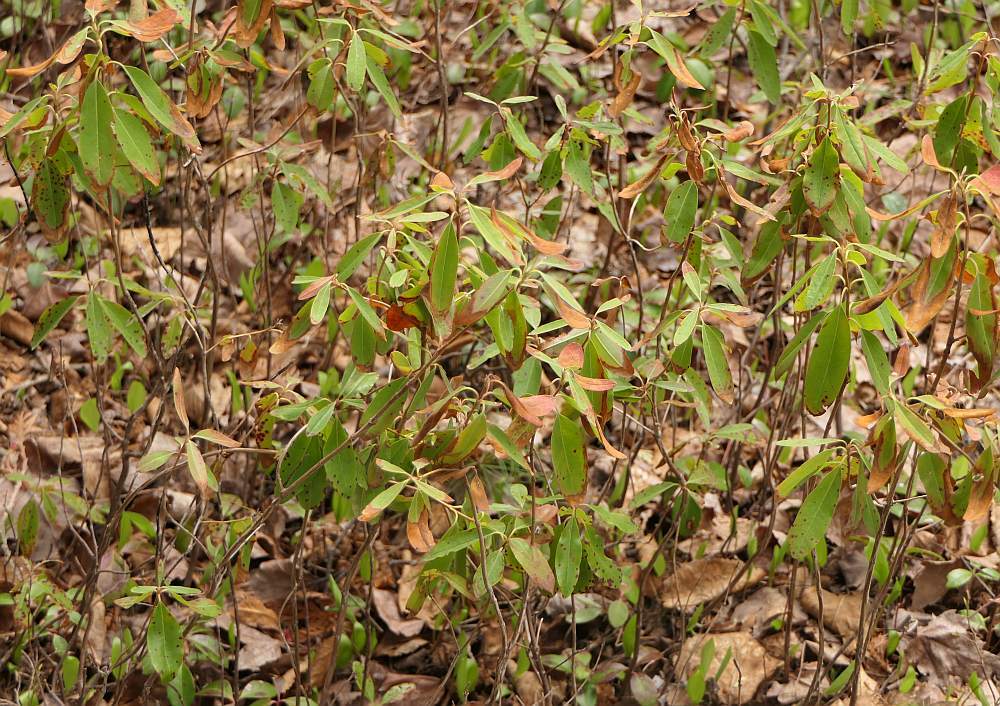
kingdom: Plantae
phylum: Tracheophyta
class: Magnoliopsida
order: Ericales
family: Ericaceae
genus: Kalmia
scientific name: Kalmia angustifolia
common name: Sheep-laurel
